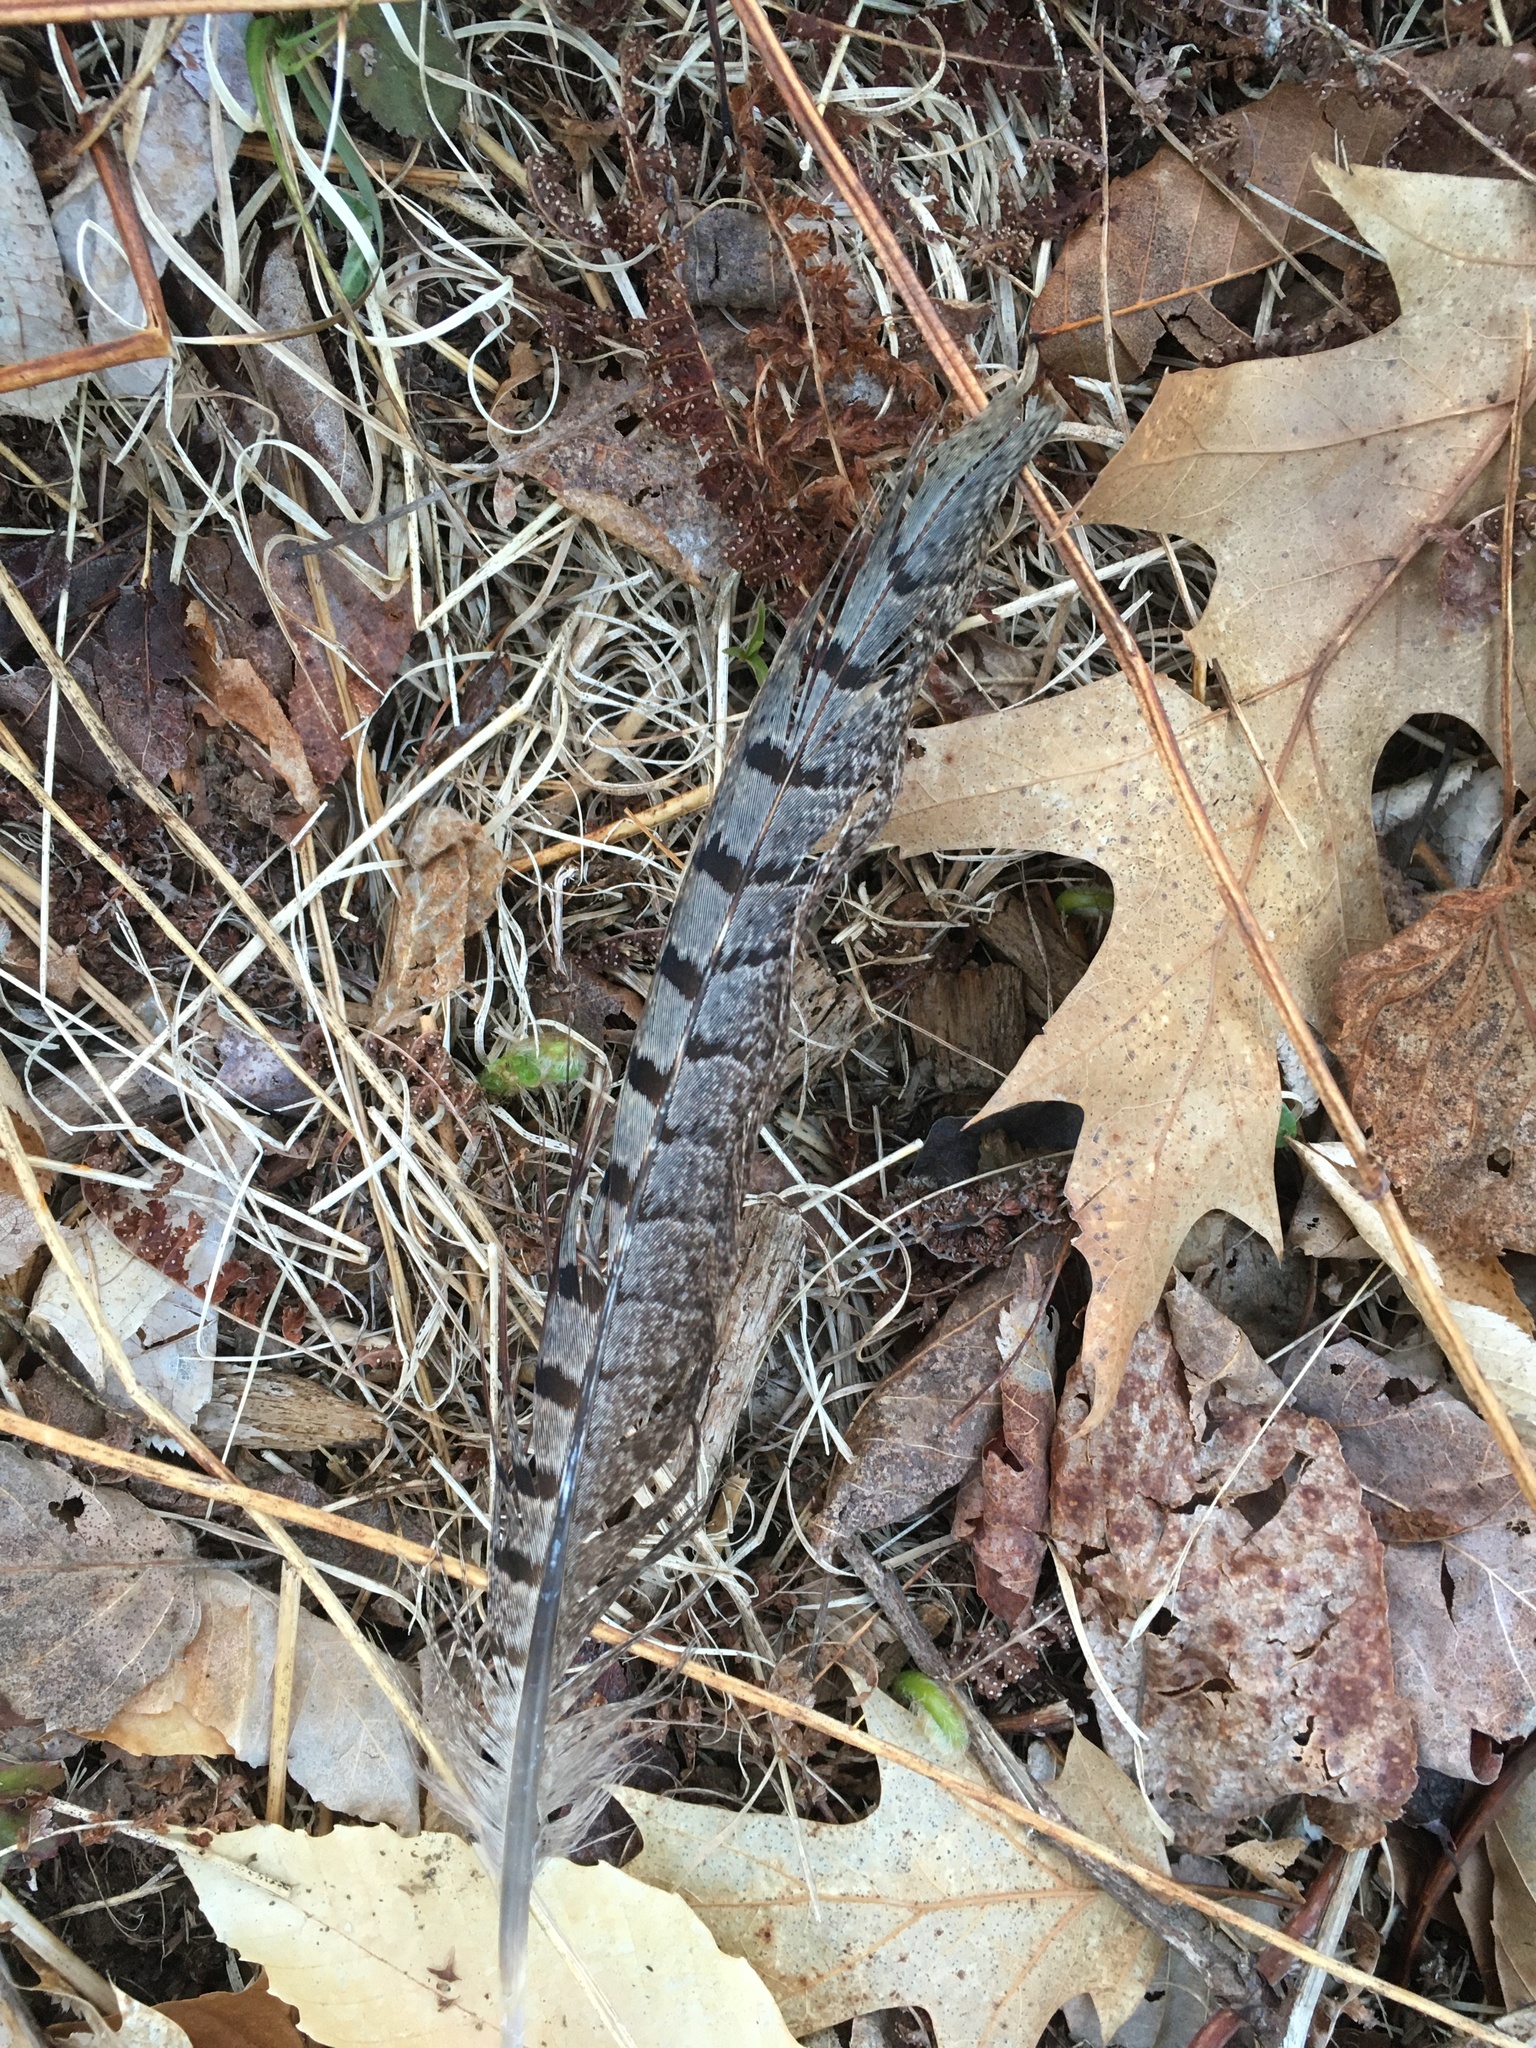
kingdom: Animalia
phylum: Chordata
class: Aves
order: Galliformes
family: Phasianidae
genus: Phasianus
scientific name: Phasianus colchicus
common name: Common pheasant
